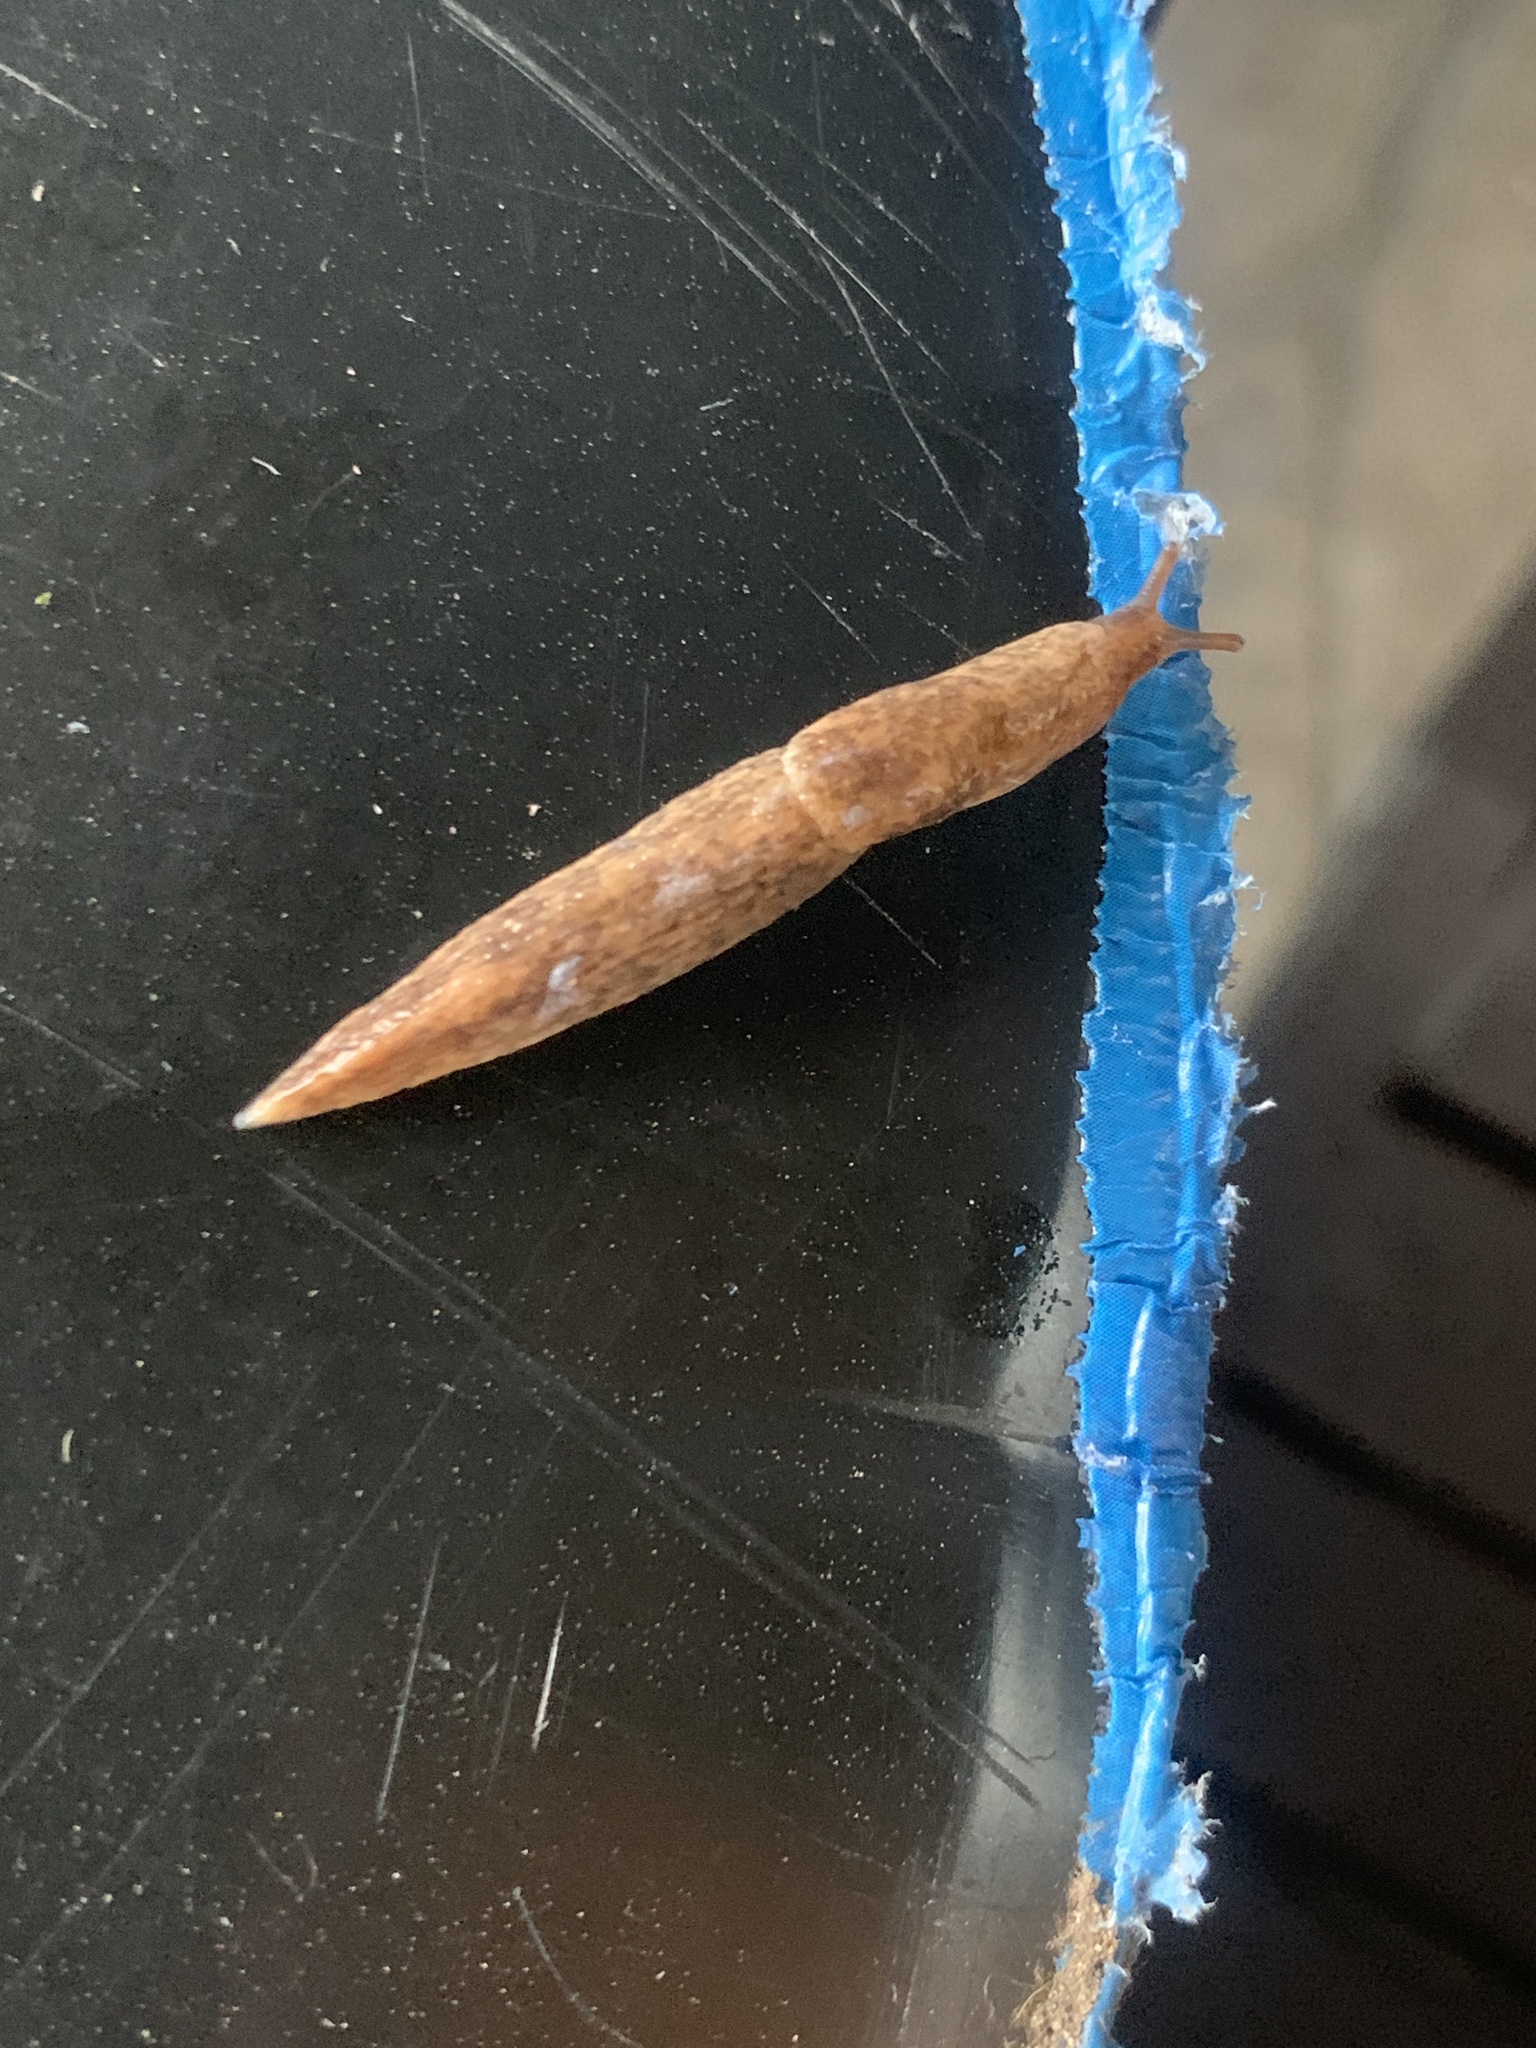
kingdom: Animalia
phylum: Mollusca
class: Gastropoda
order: Stylommatophora
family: Agriolimacidae
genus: Deroceras
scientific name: Deroceras reticulatum
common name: Gray field slug
